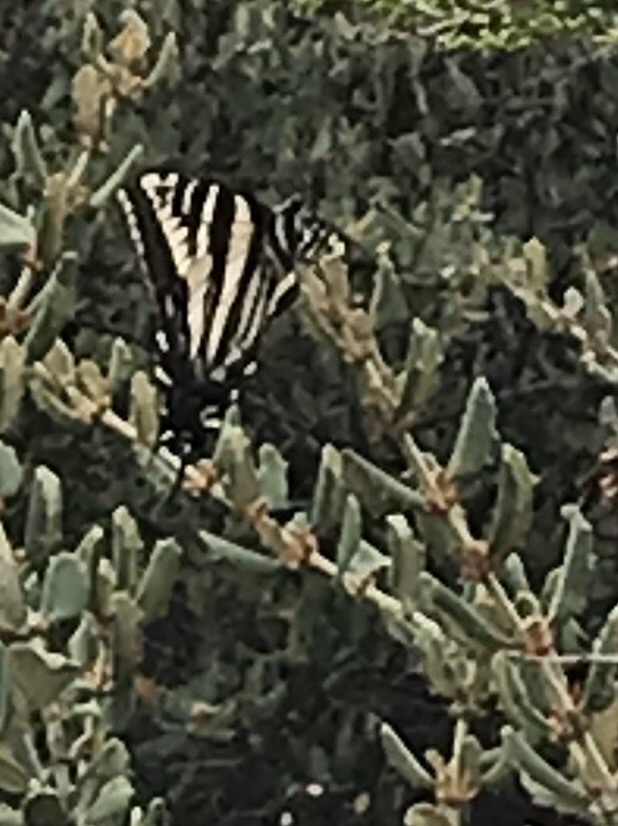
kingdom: Animalia
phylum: Arthropoda
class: Insecta
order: Lepidoptera
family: Papilionidae
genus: Papilio
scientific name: Papilio eurymedon
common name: Pale tiger swallowtail
